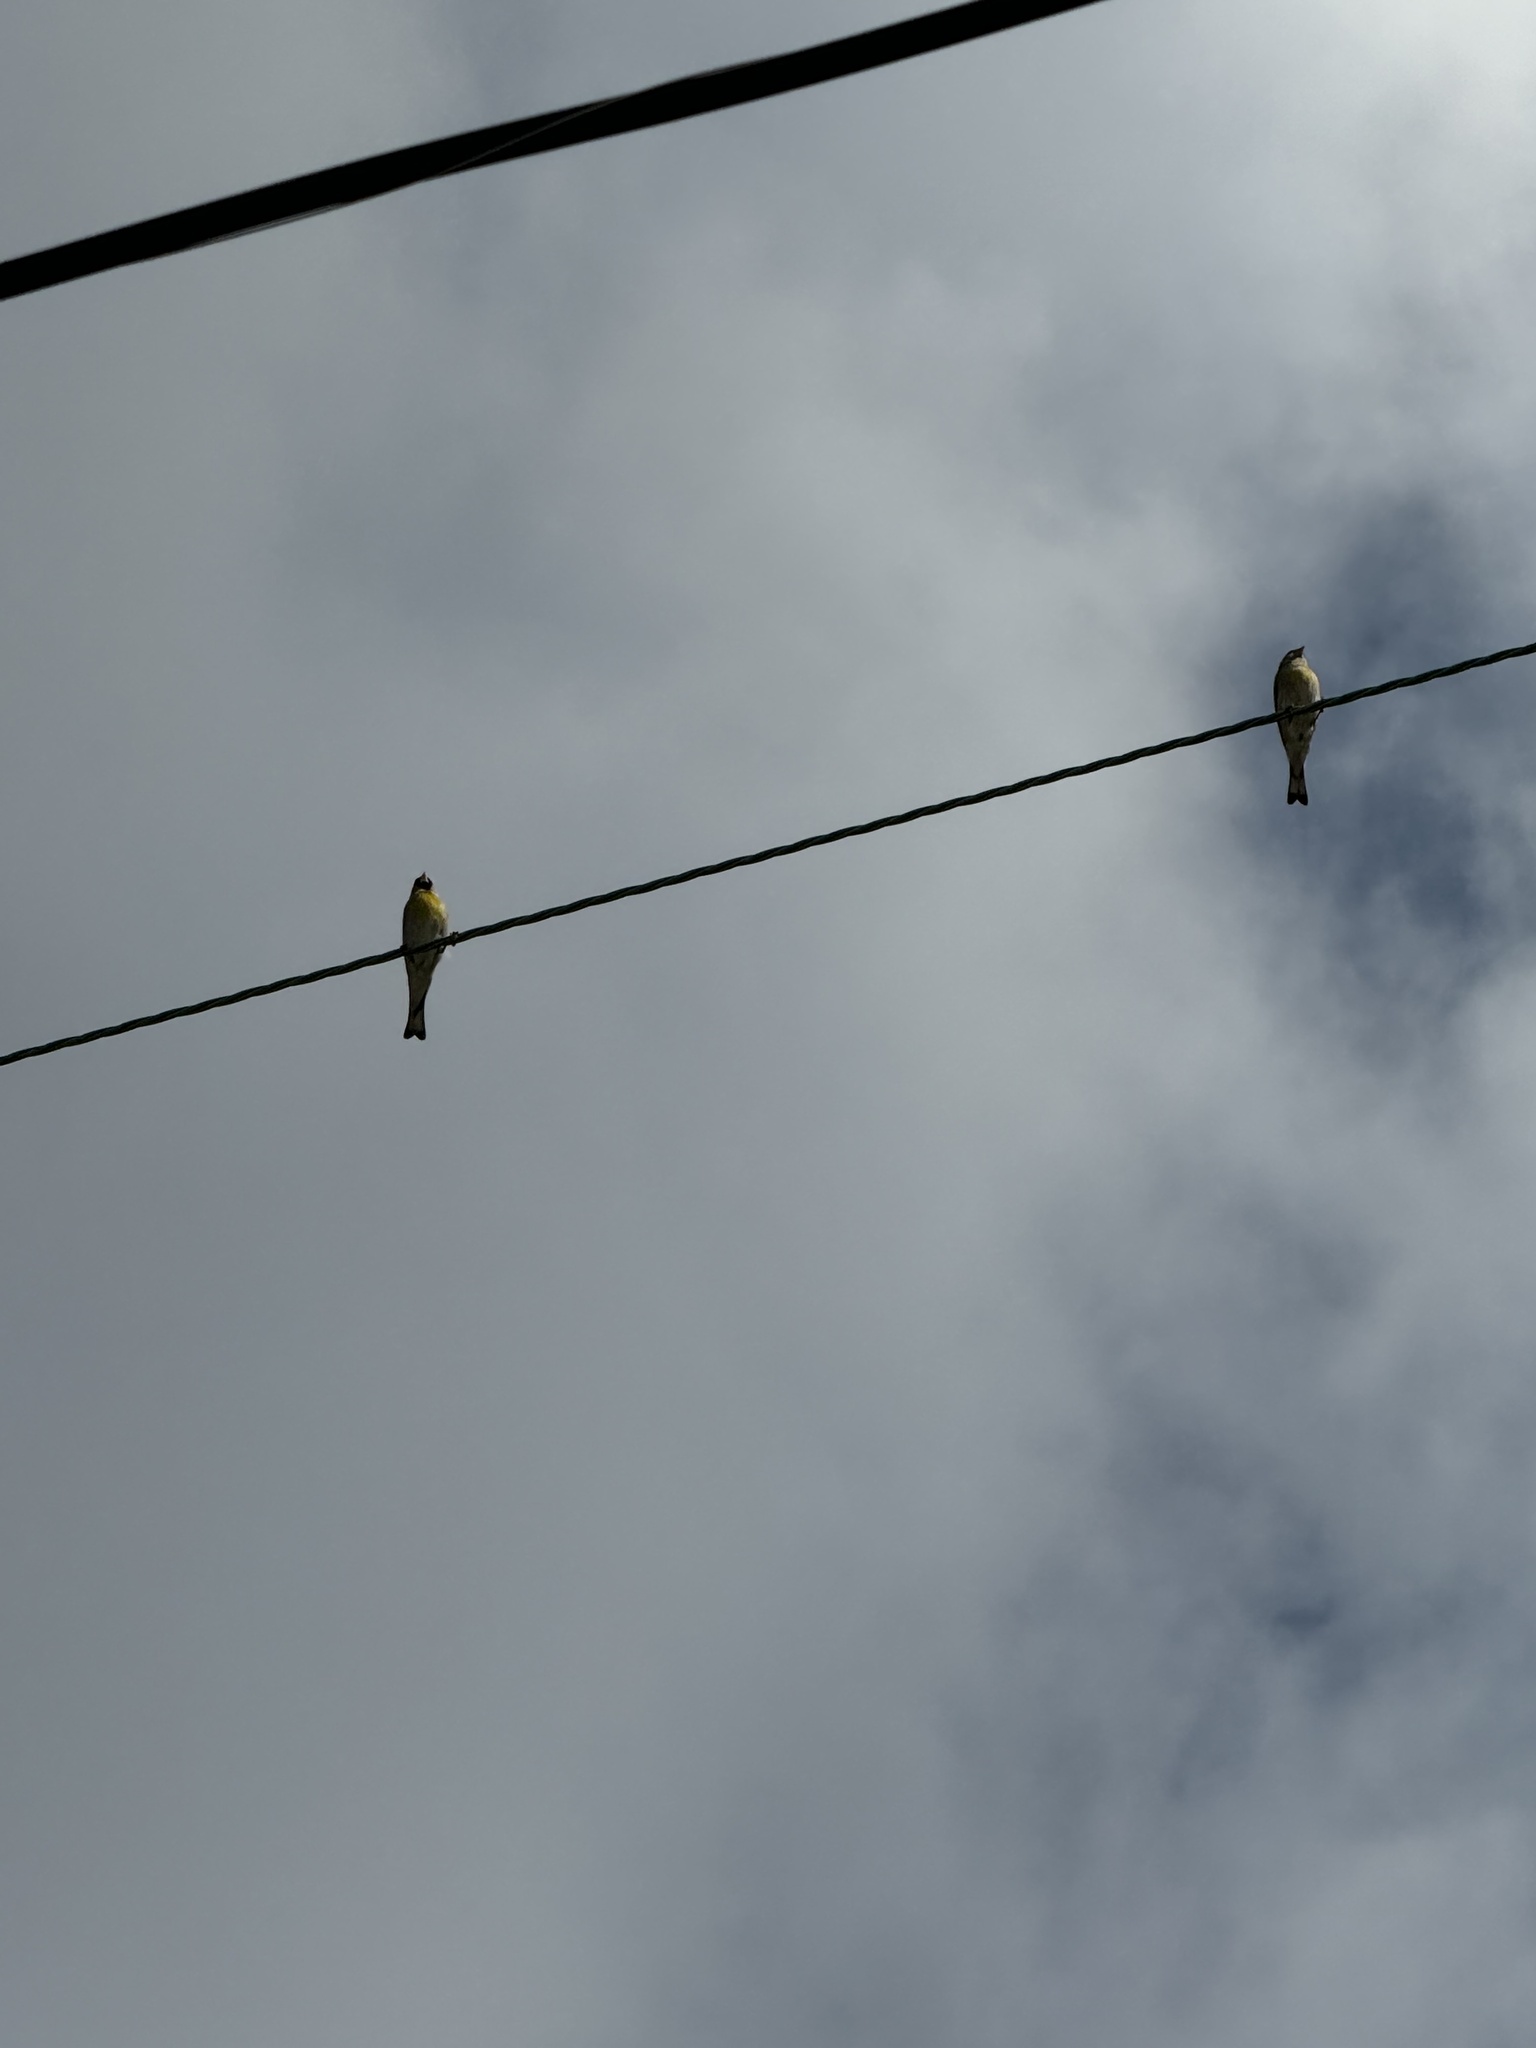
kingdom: Animalia
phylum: Chordata
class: Aves
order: Passeriformes
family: Fringillidae
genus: Haemorhous
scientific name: Haemorhous mexicanus
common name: House finch
